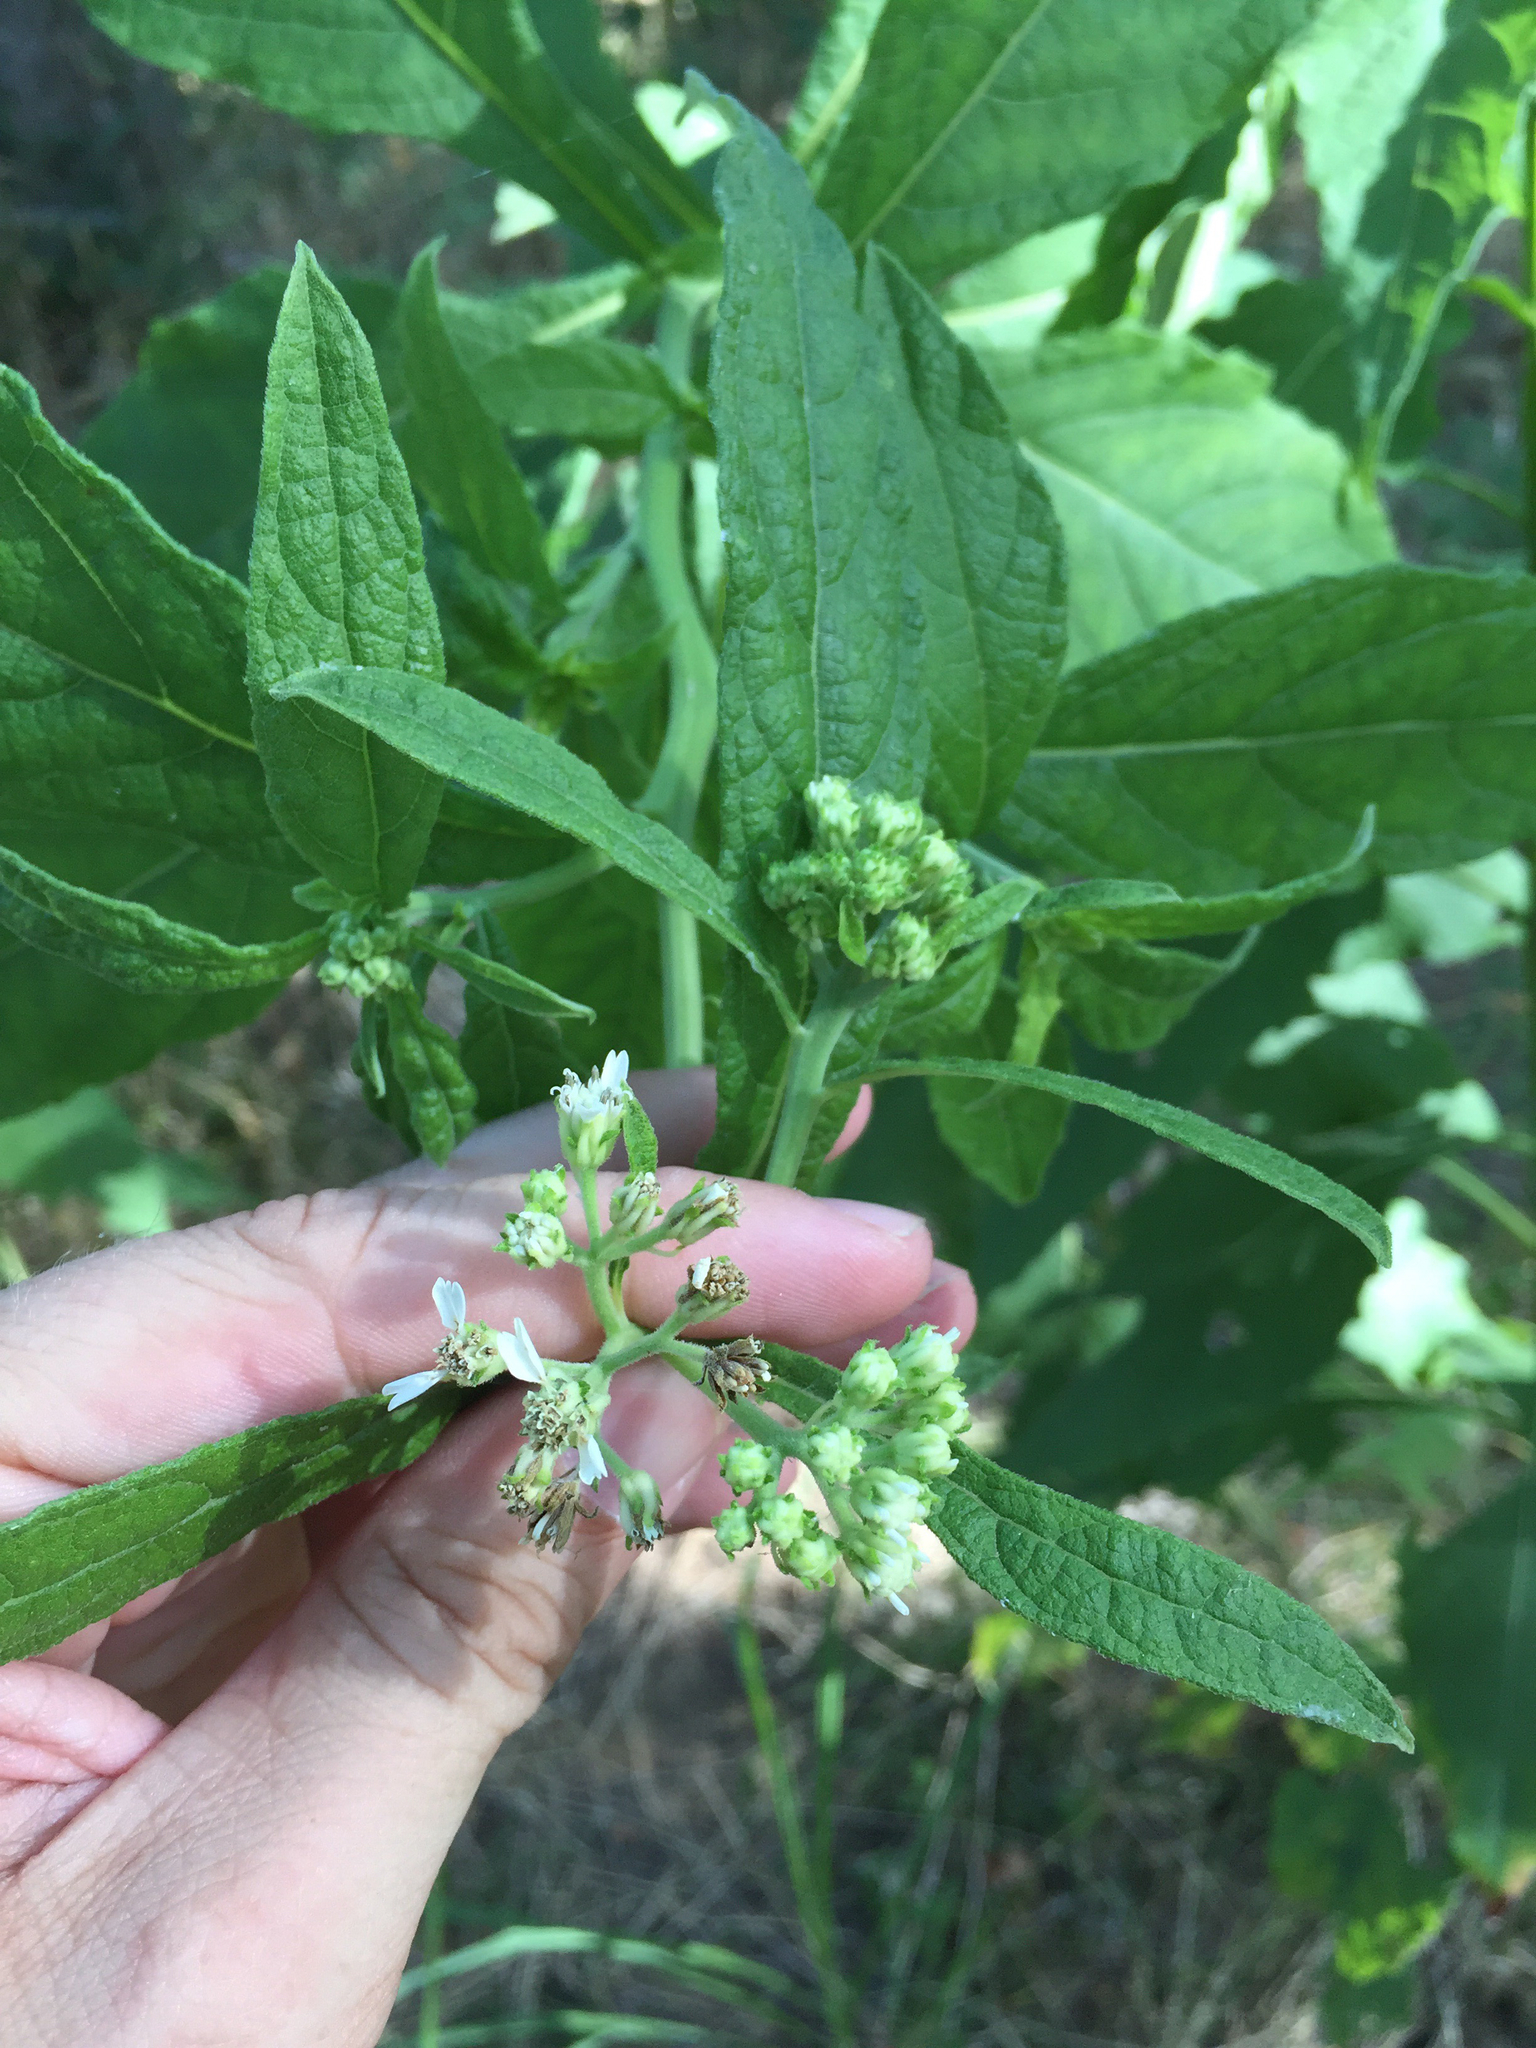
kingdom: Plantae
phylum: Tracheophyta
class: Magnoliopsida
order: Asterales
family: Asteraceae
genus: Verbesina
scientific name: Verbesina virginica
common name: Frostweed
